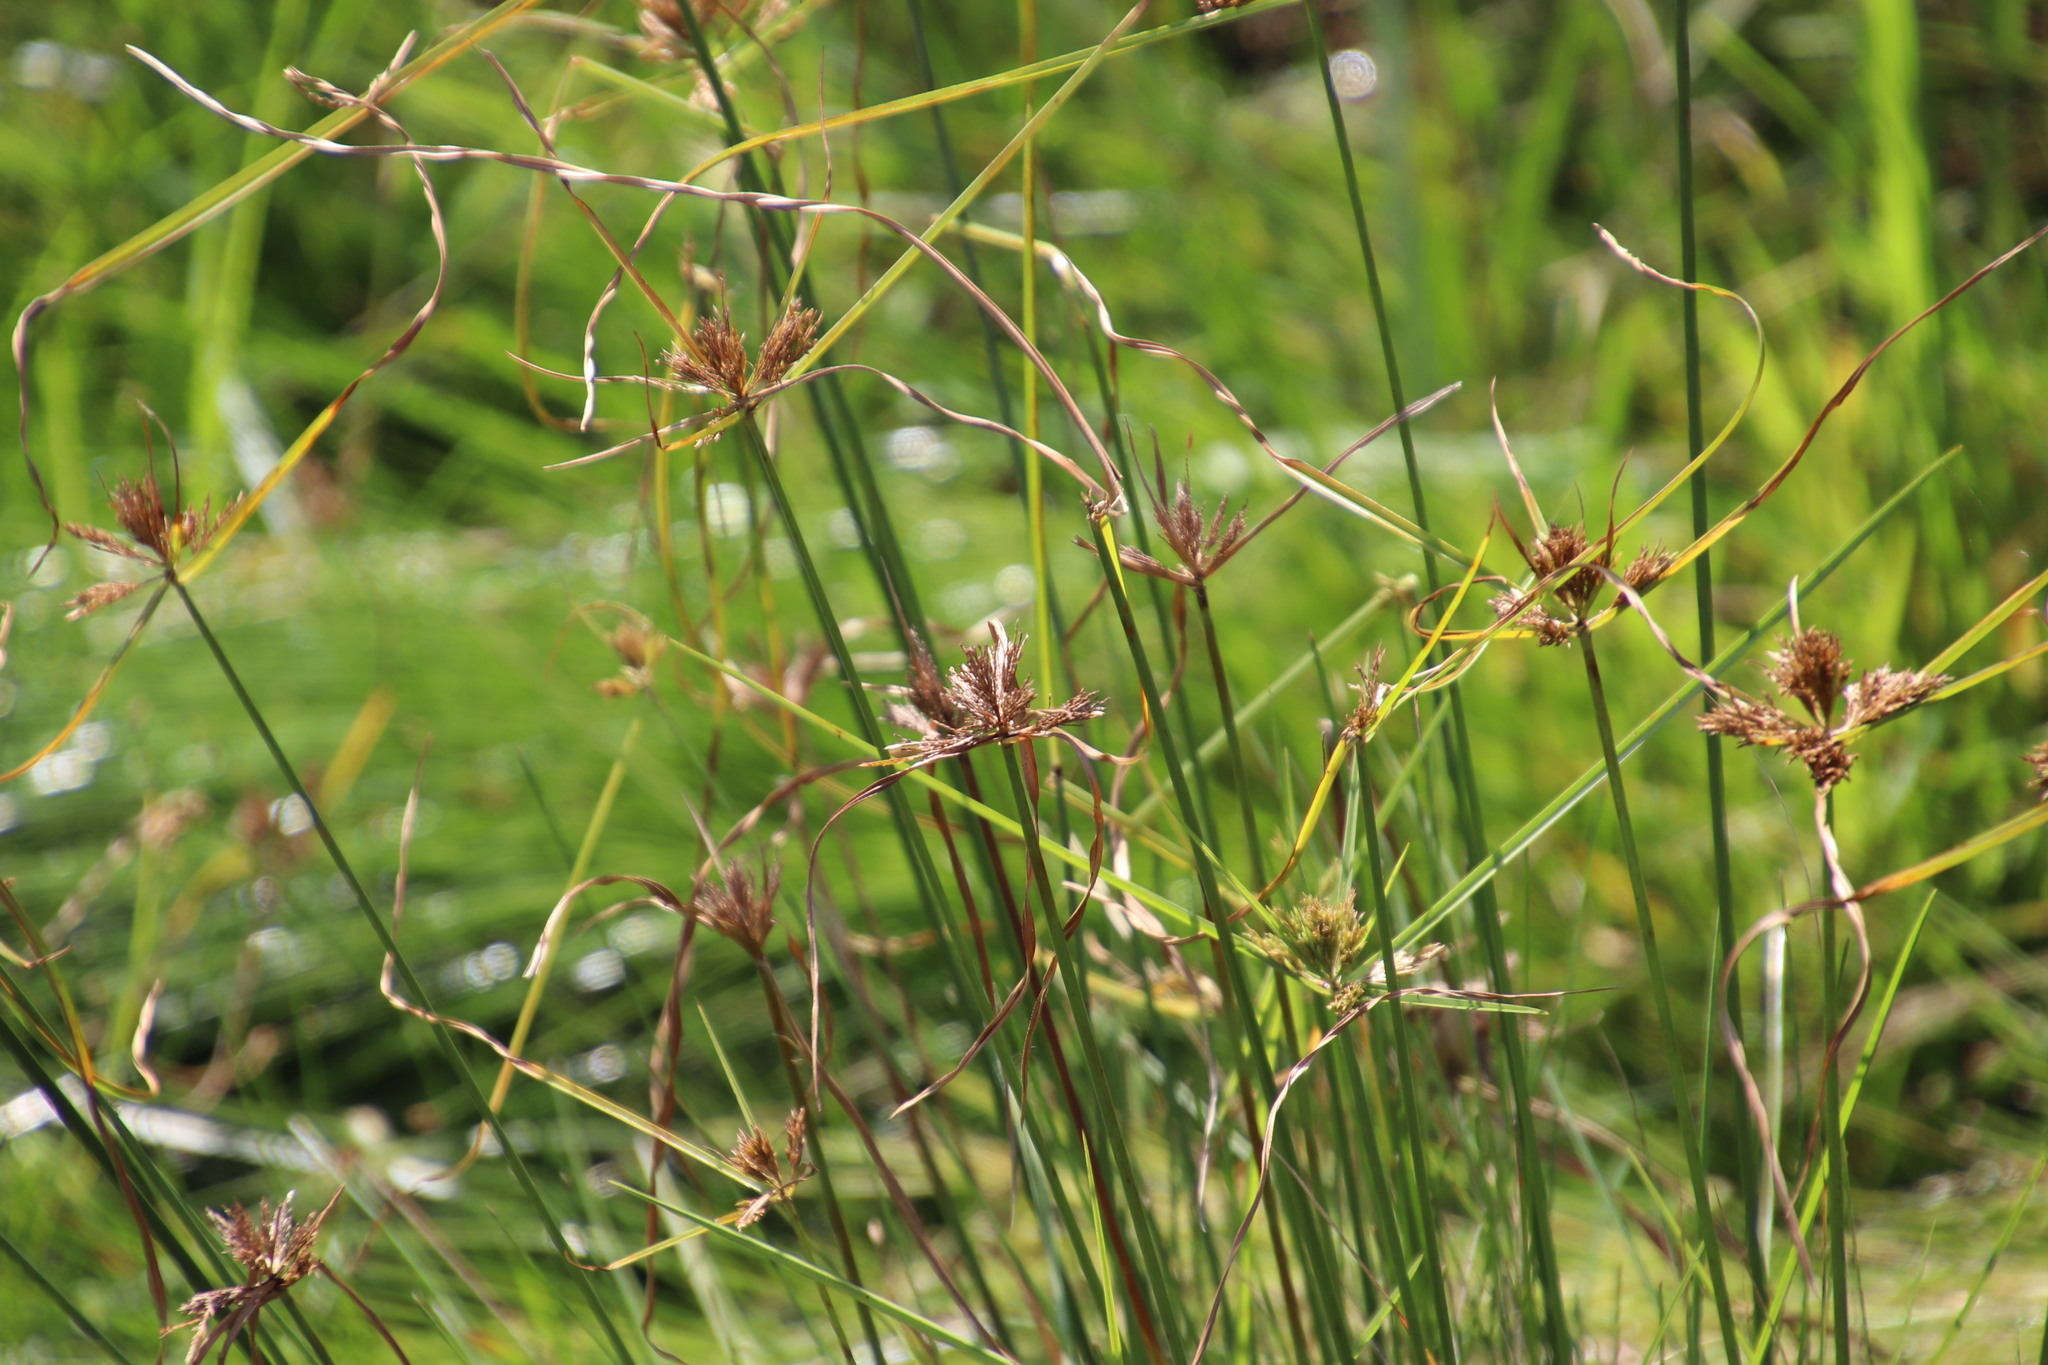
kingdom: Plantae
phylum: Tracheophyta
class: Liliopsida
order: Poales
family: Cyperaceae
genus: Cyperus
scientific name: Cyperus polystachyos
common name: Bunchy flat sedge
